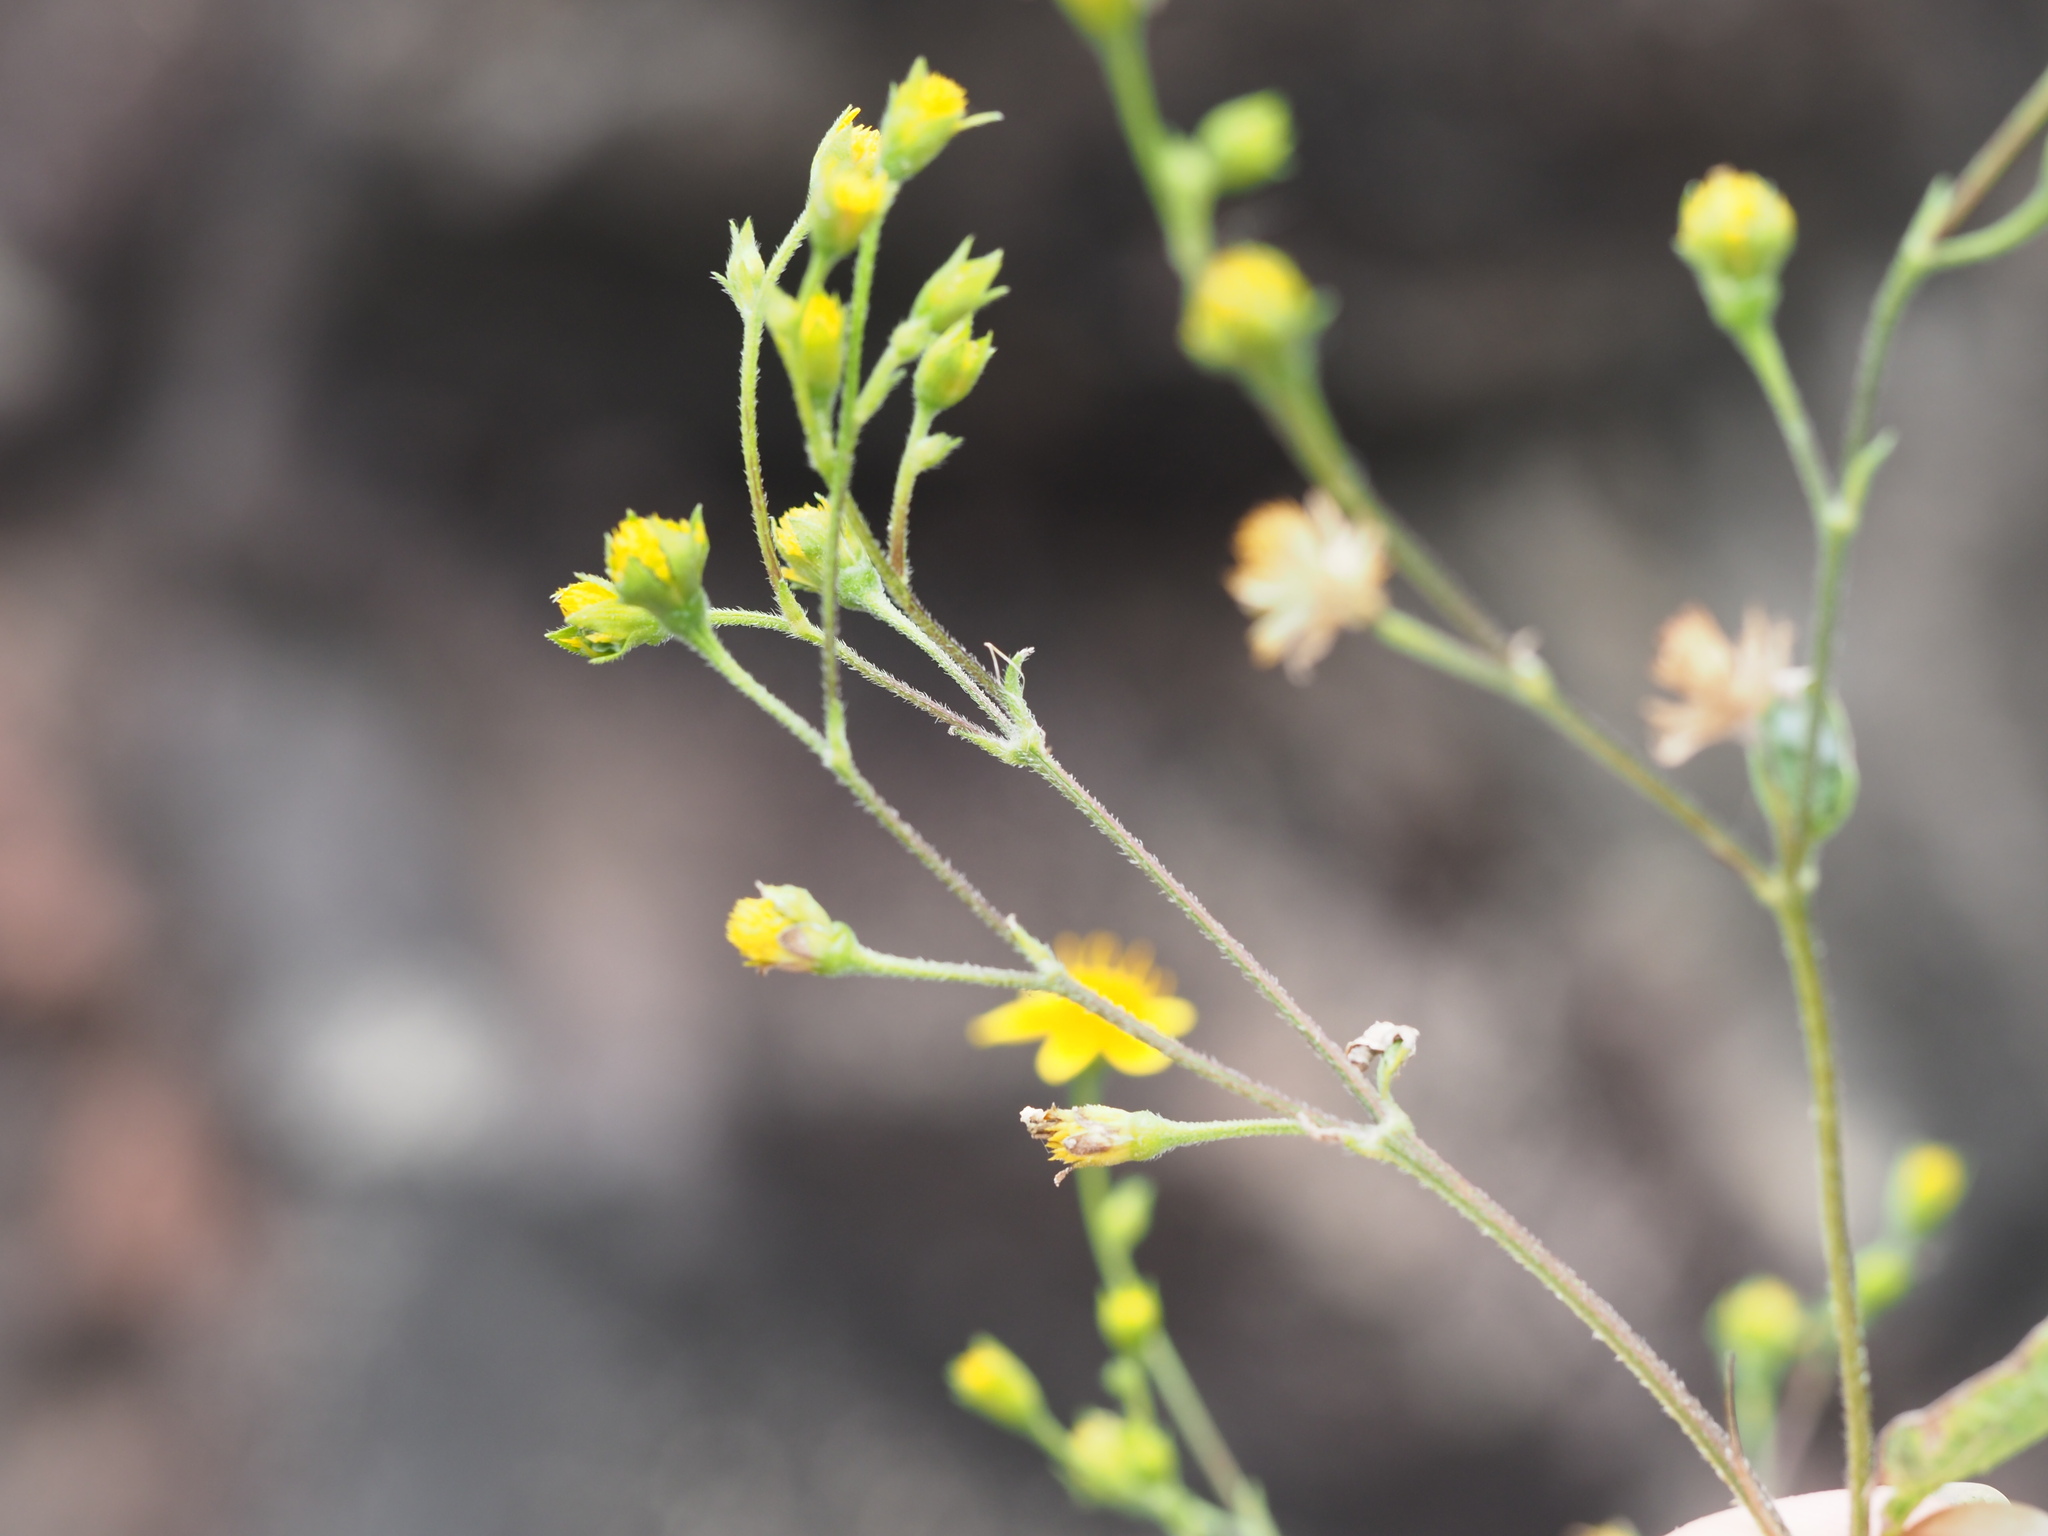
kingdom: Plantae
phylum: Tracheophyta
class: Magnoliopsida
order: Asterales
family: Asteraceae
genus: Baltimora
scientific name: Baltimora recta
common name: Beautyhead
